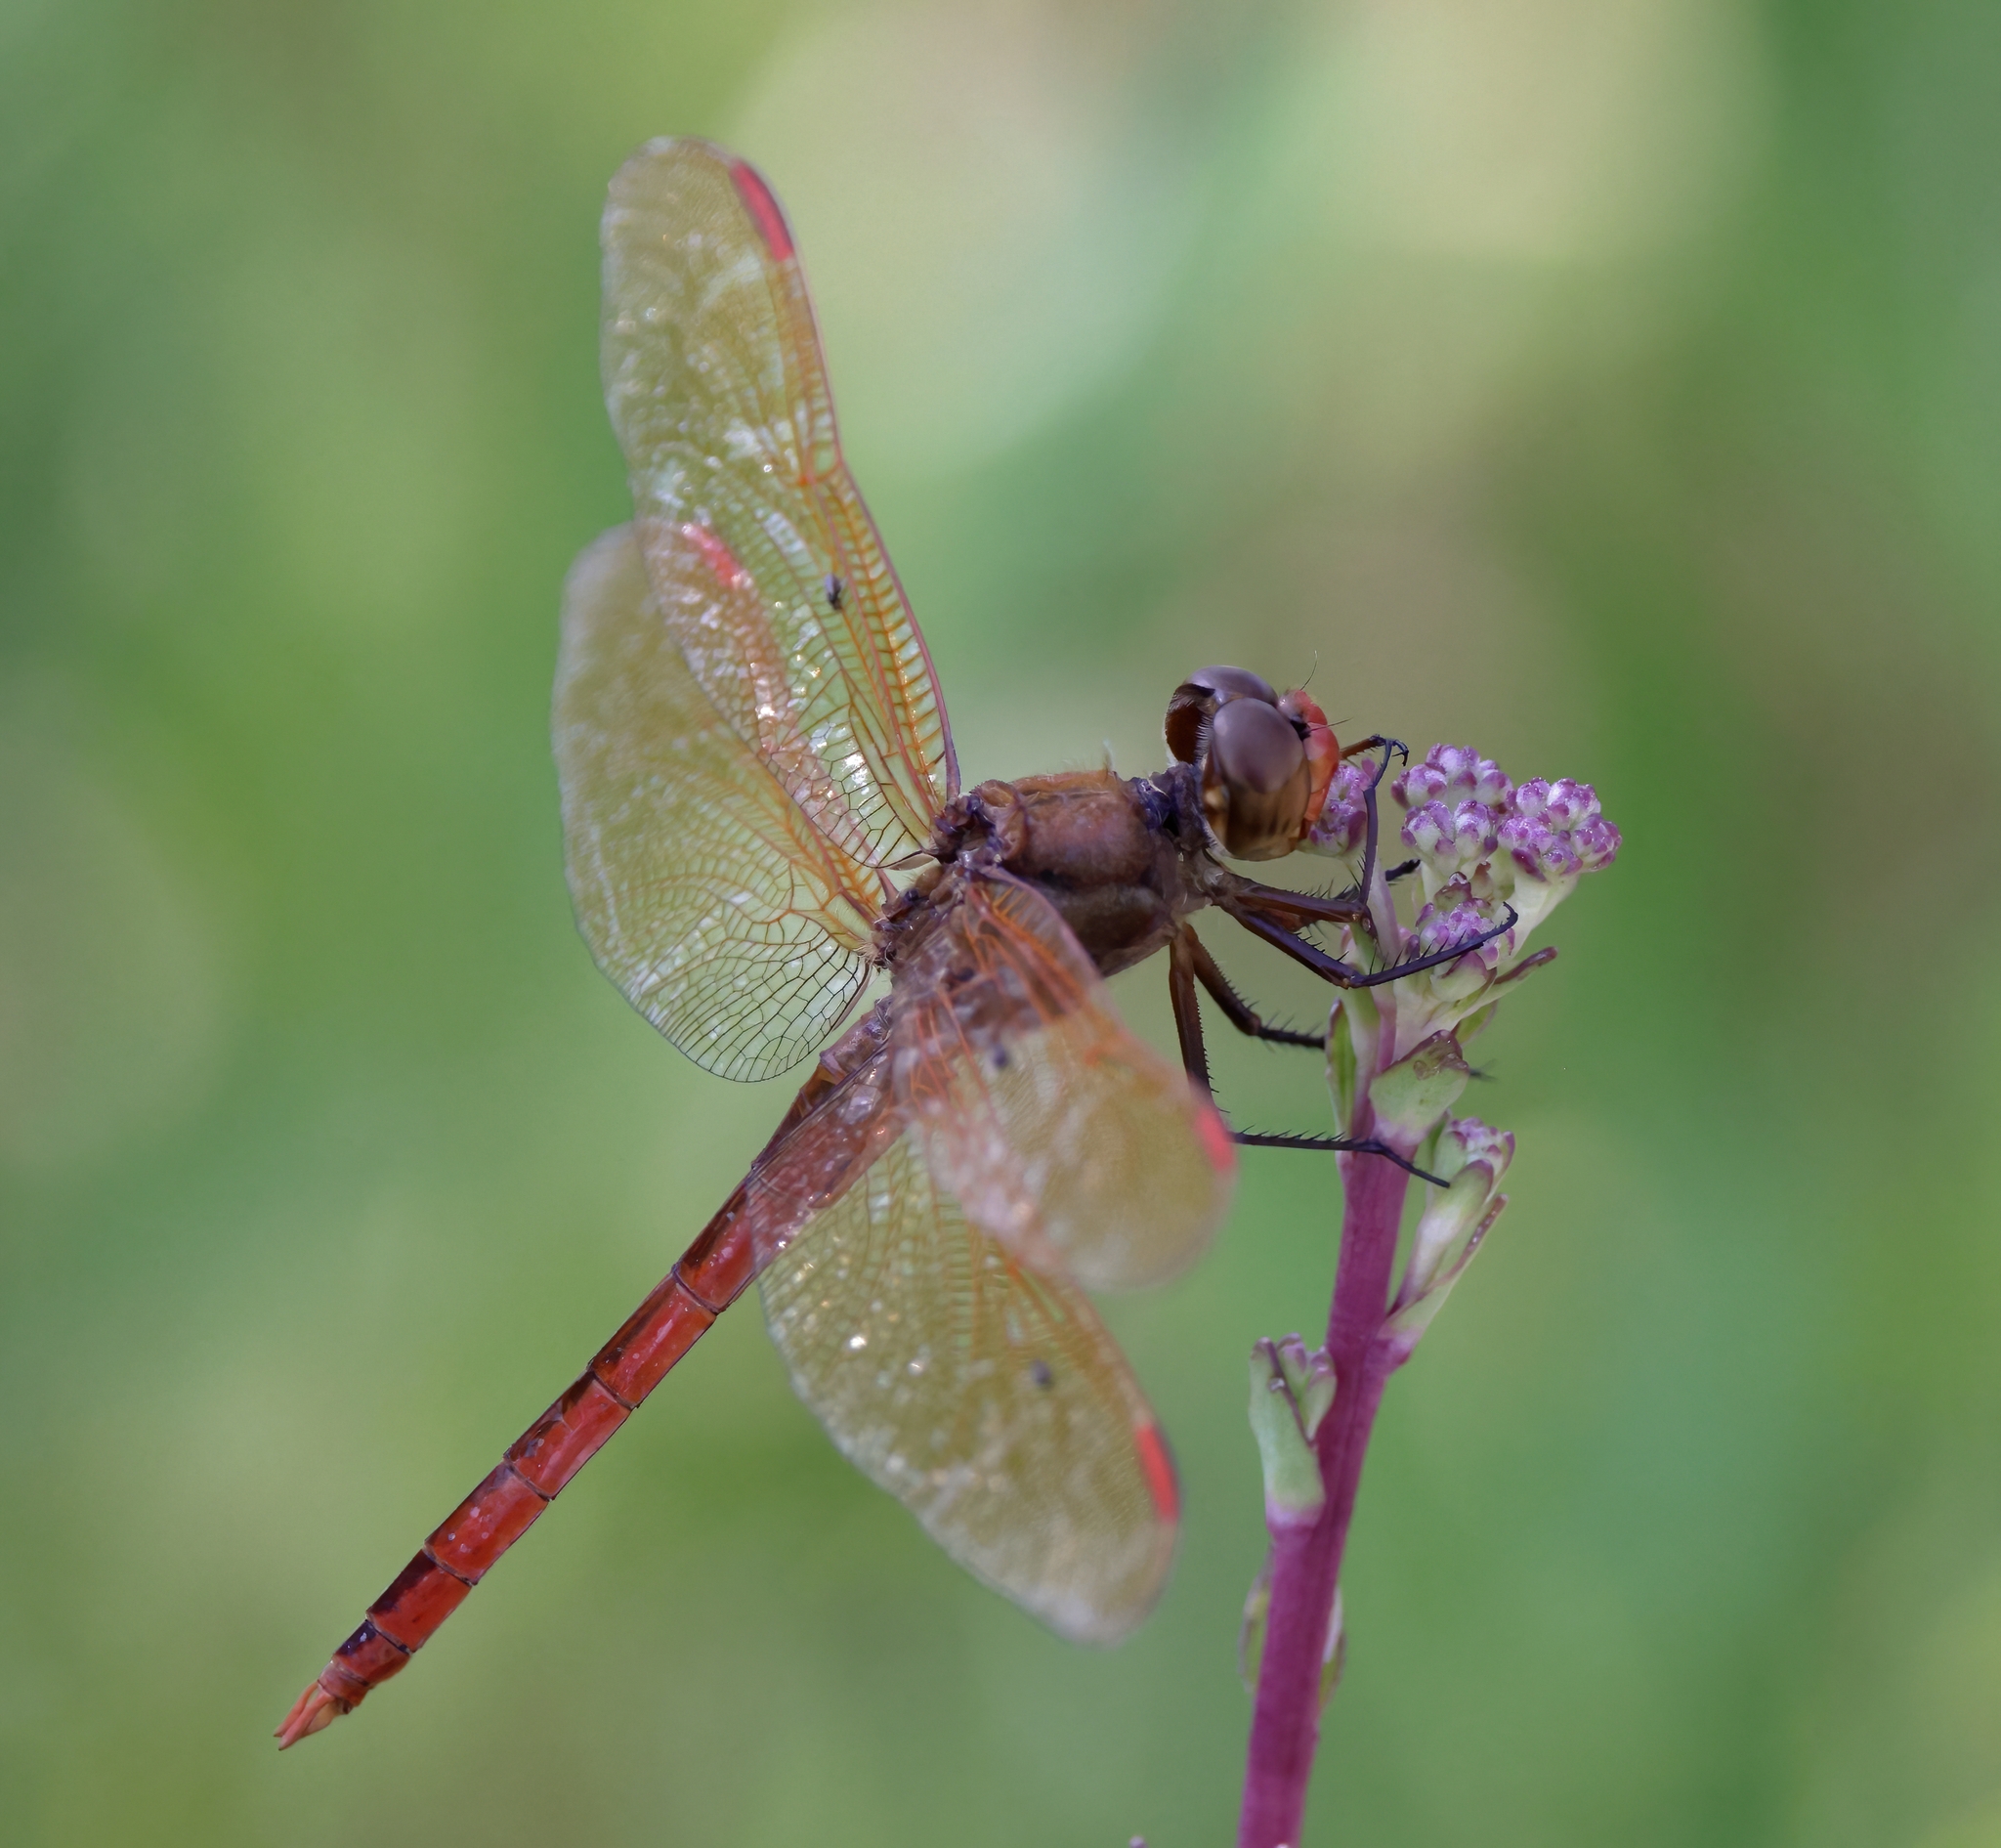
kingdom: Animalia
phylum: Arthropoda
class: Insecta
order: Odonata
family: Libellulidae
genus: Libellula
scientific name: Libellula auripennis
